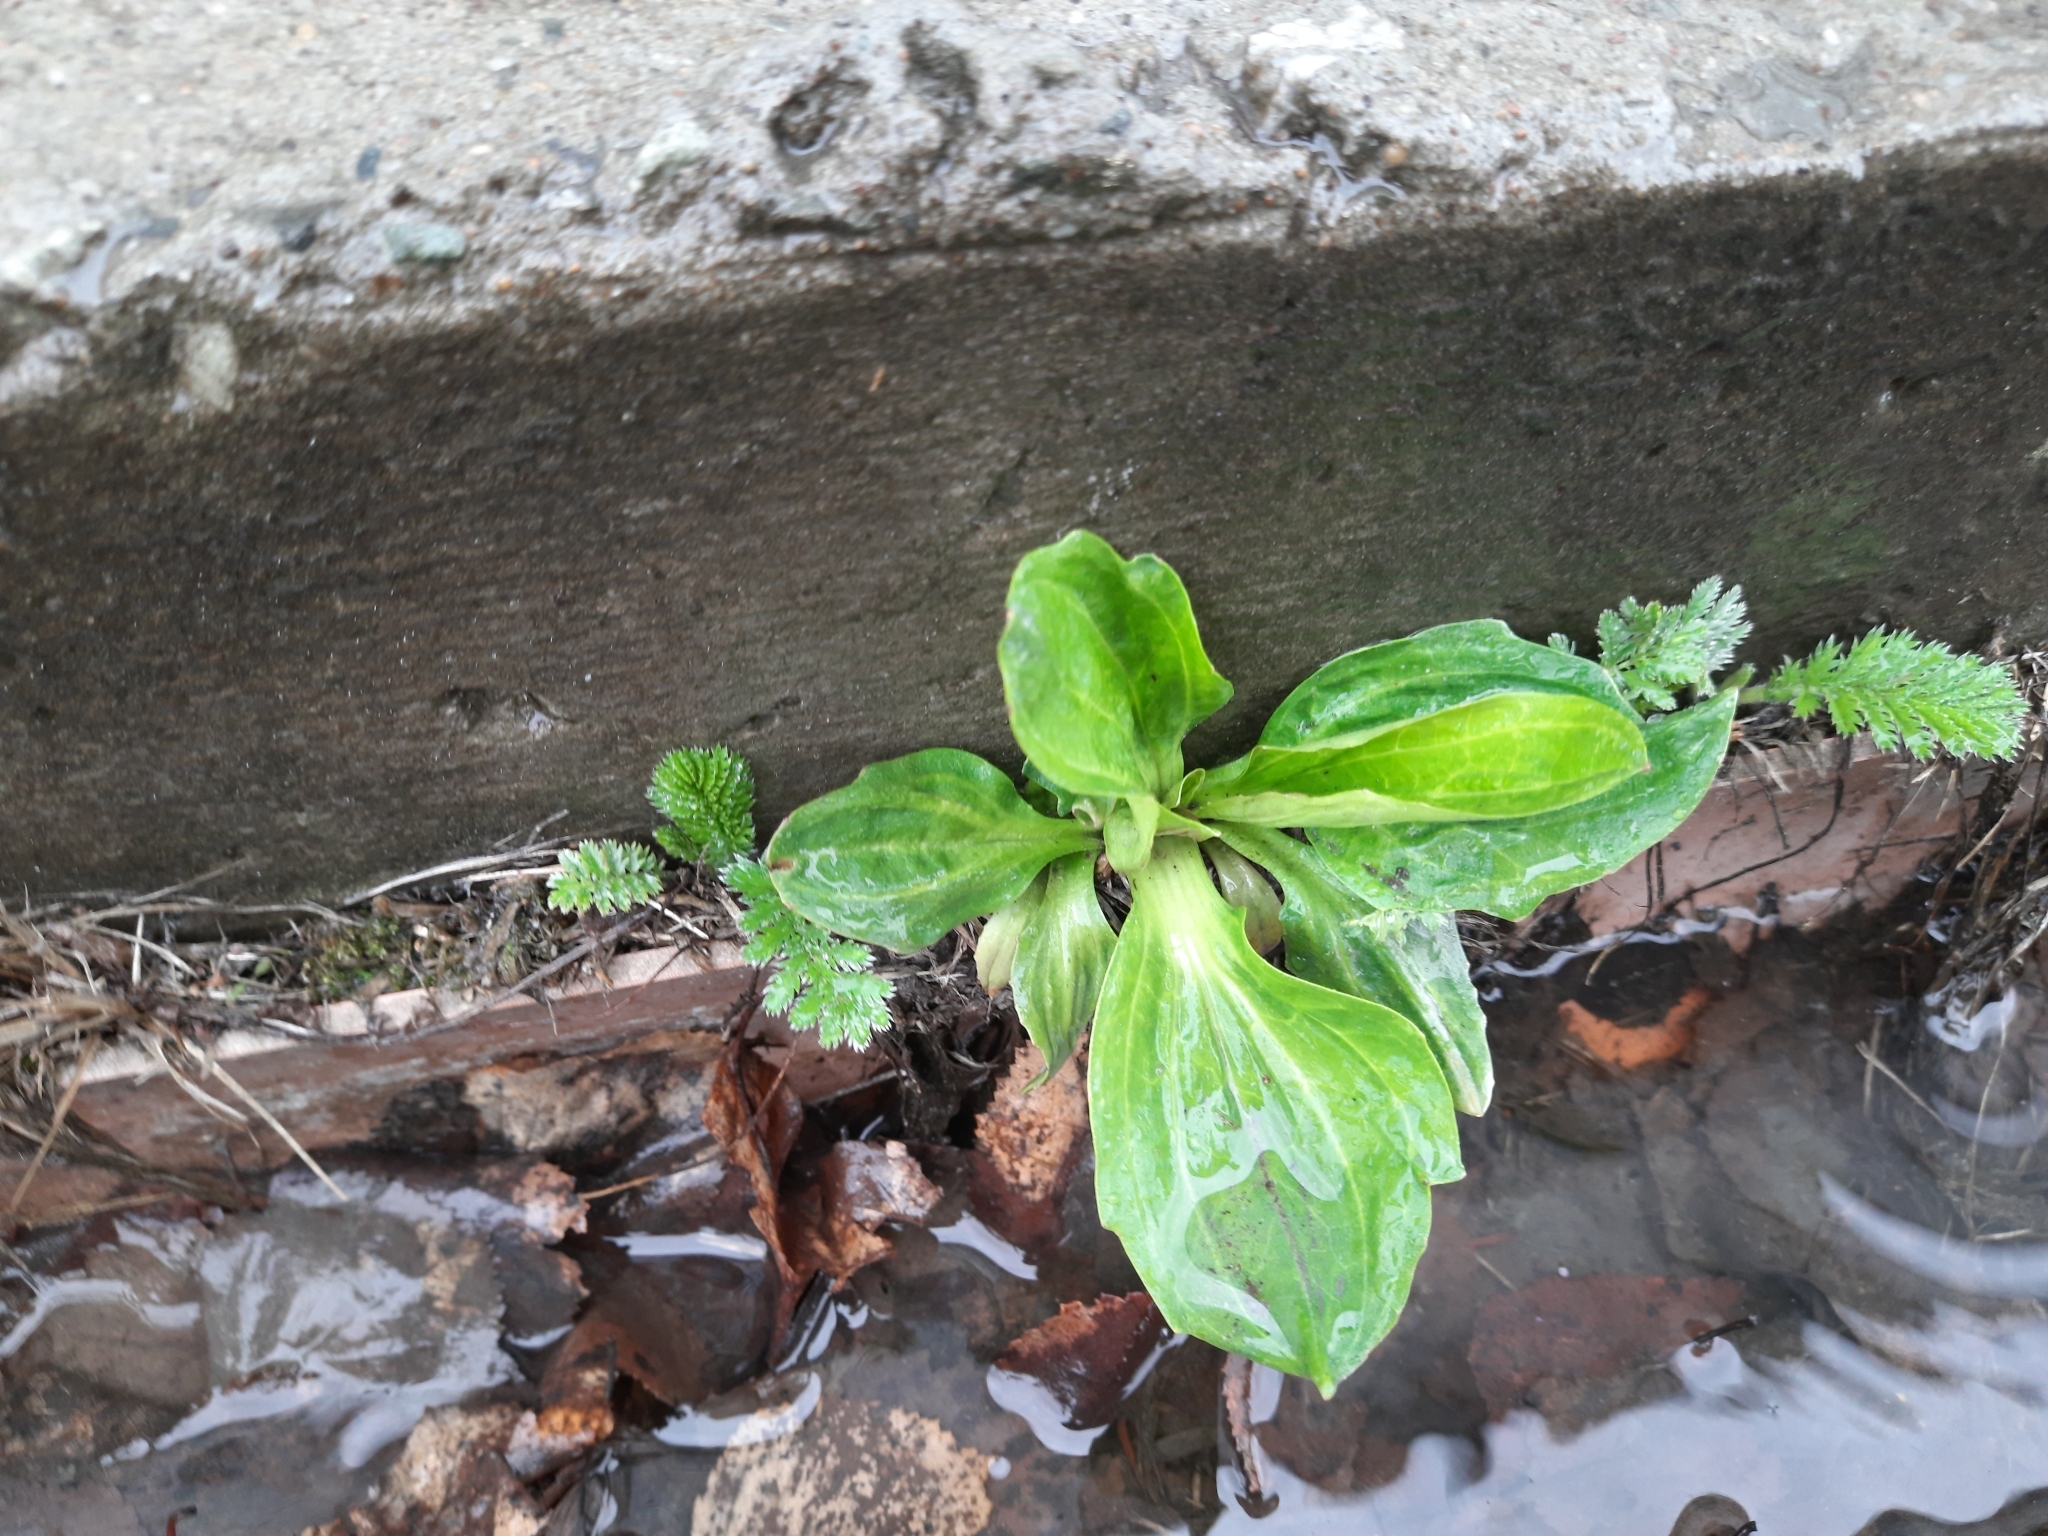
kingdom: Plantae
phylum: Tracheophyta
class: Magnoliopsida
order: Lamiales
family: Plantaginaceae
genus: Plantago
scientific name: Plantago major
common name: Common plantain
